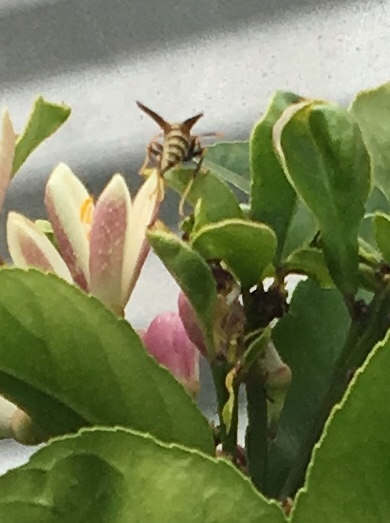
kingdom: Animalia
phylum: Arthropoda
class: Insecta
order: Hymenoptera
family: Eumenidae
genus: Polistes
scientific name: Polistes exclamans
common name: Paper wasp
